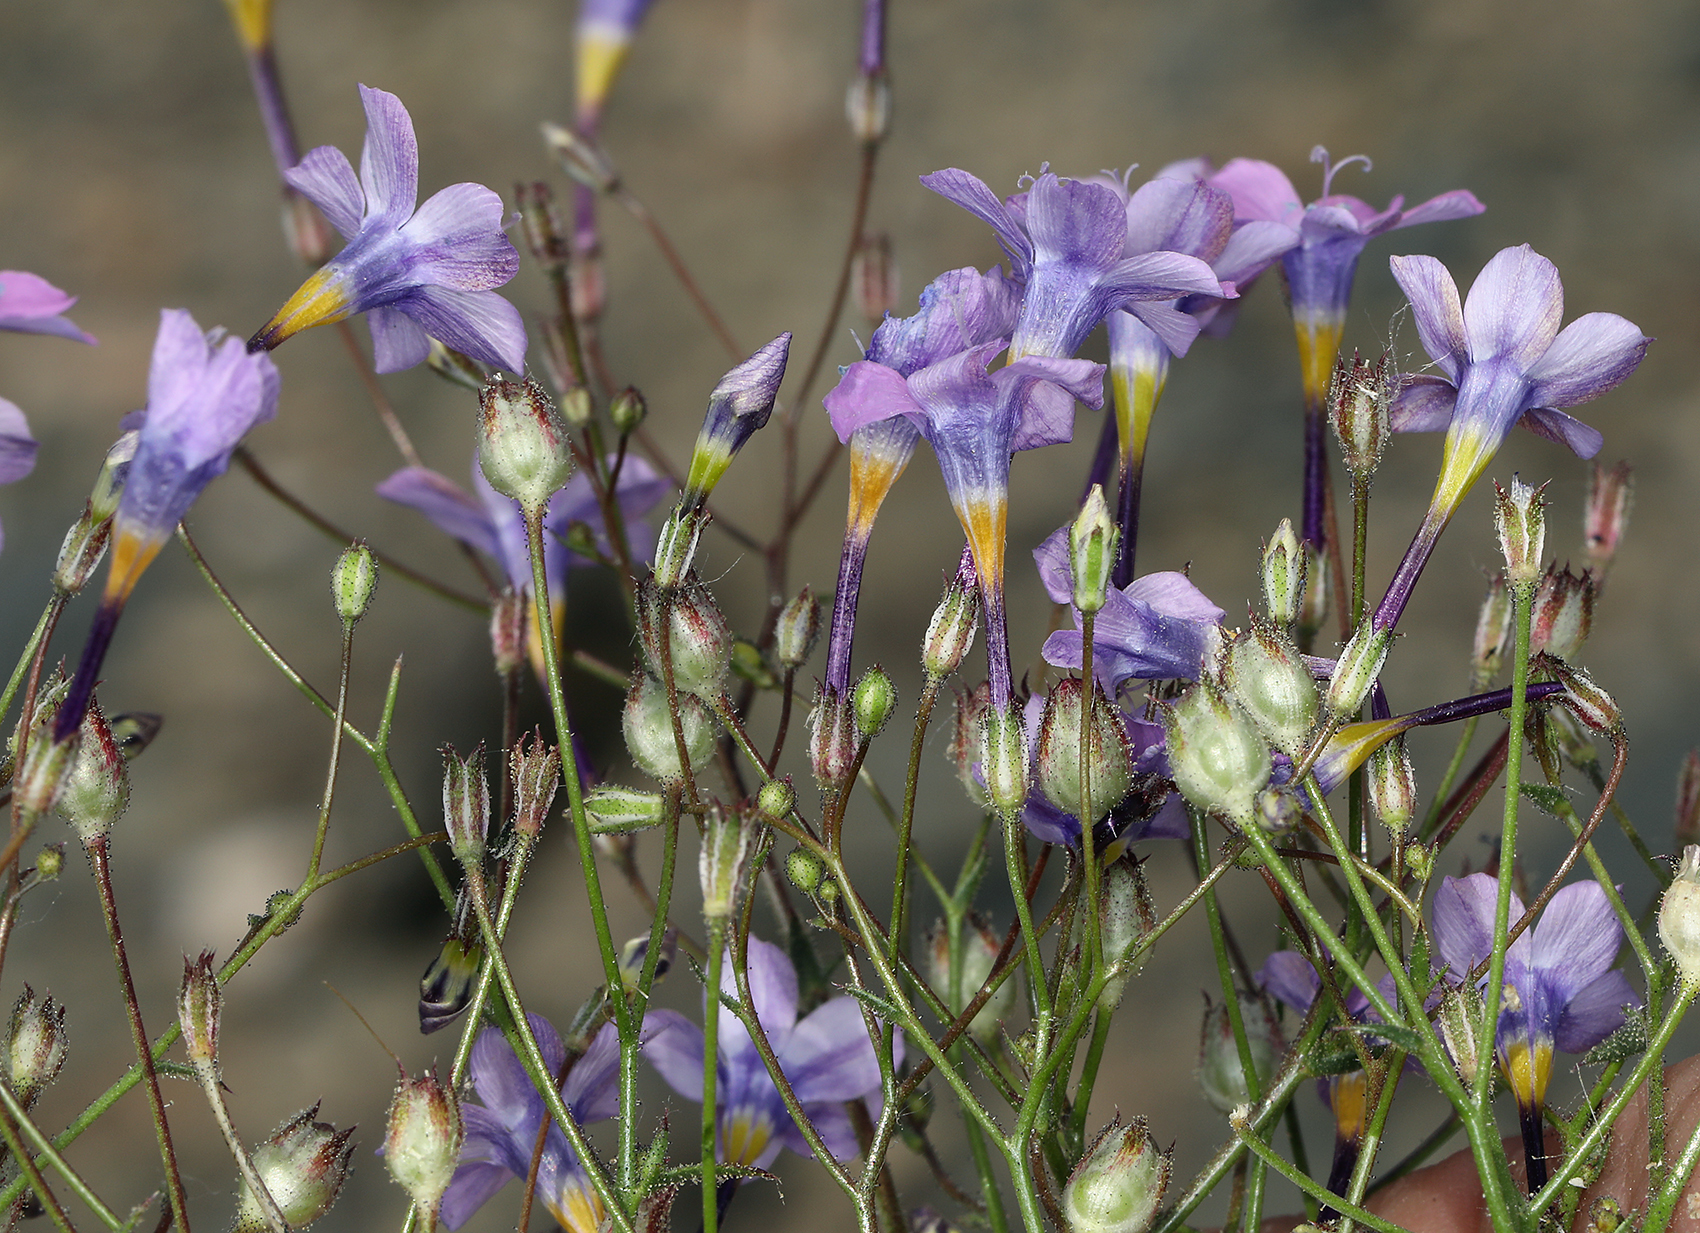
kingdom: Plantae
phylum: Tracheophyta
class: Magnoliopsida
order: Ericales
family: Polemoniaceae
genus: Gilia
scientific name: Gilia cana
